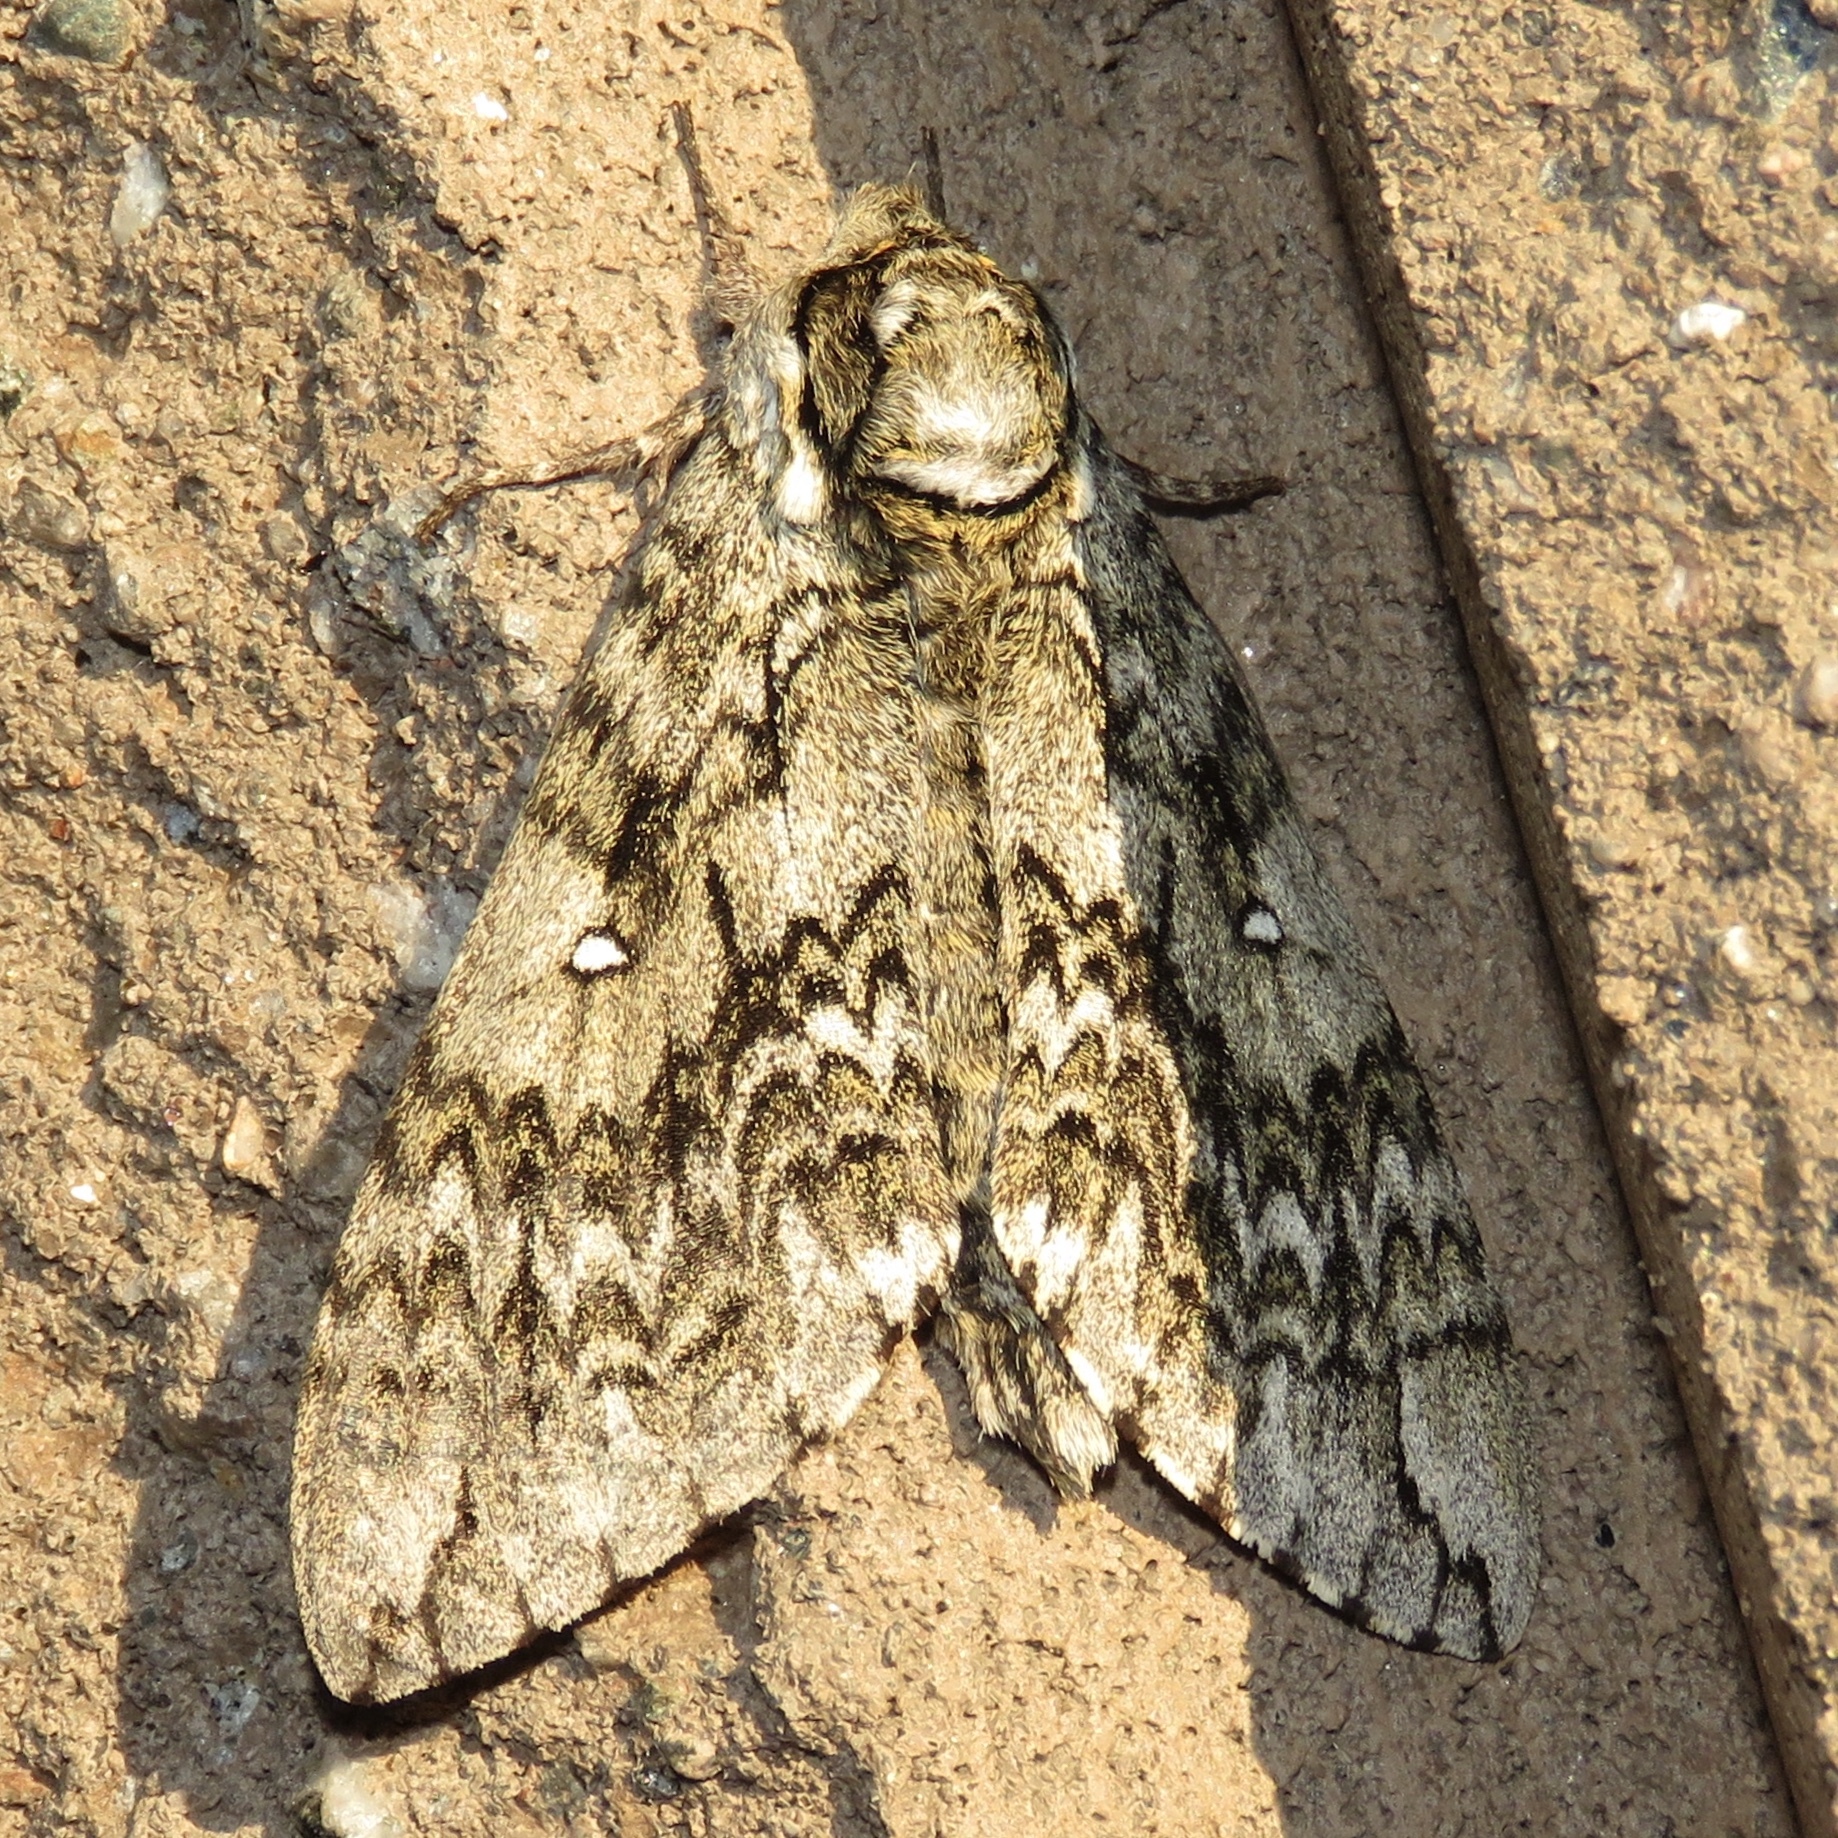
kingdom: Animalia
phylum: Arthropoda
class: Insecta
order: Lepidoptera
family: Sphingidae
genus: Ceratomia
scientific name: Ceratomia undulosa
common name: Waved sphinx
